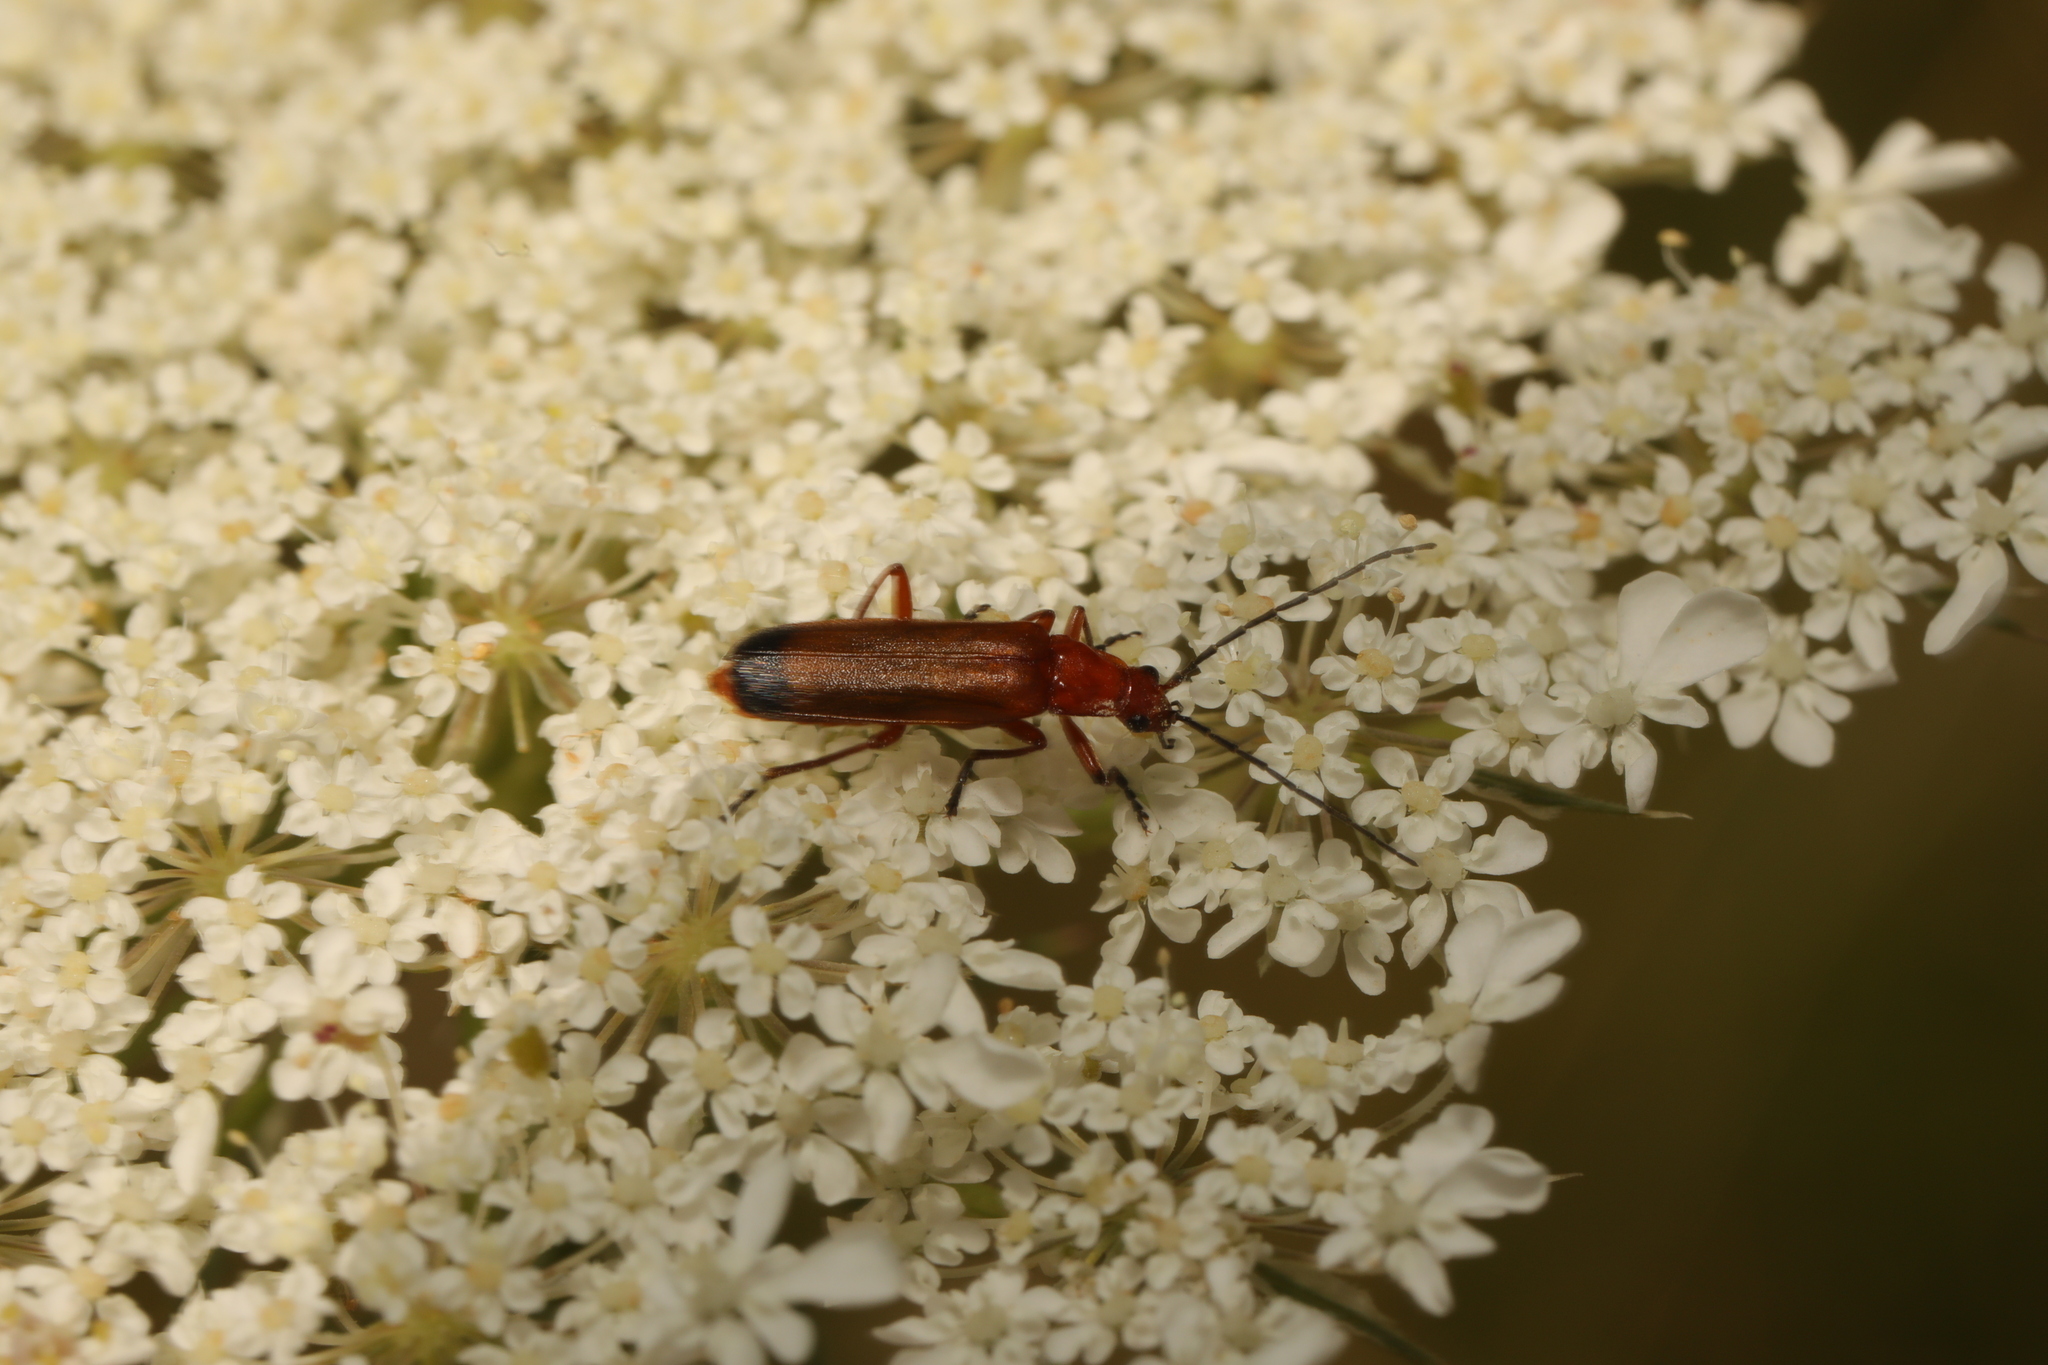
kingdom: Animalia
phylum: Arthropoda
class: Insecta
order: Coleoptera
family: Cantharidae
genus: Rhagonycha
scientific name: Rhagonycha fulva
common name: Common red soldier beetle
